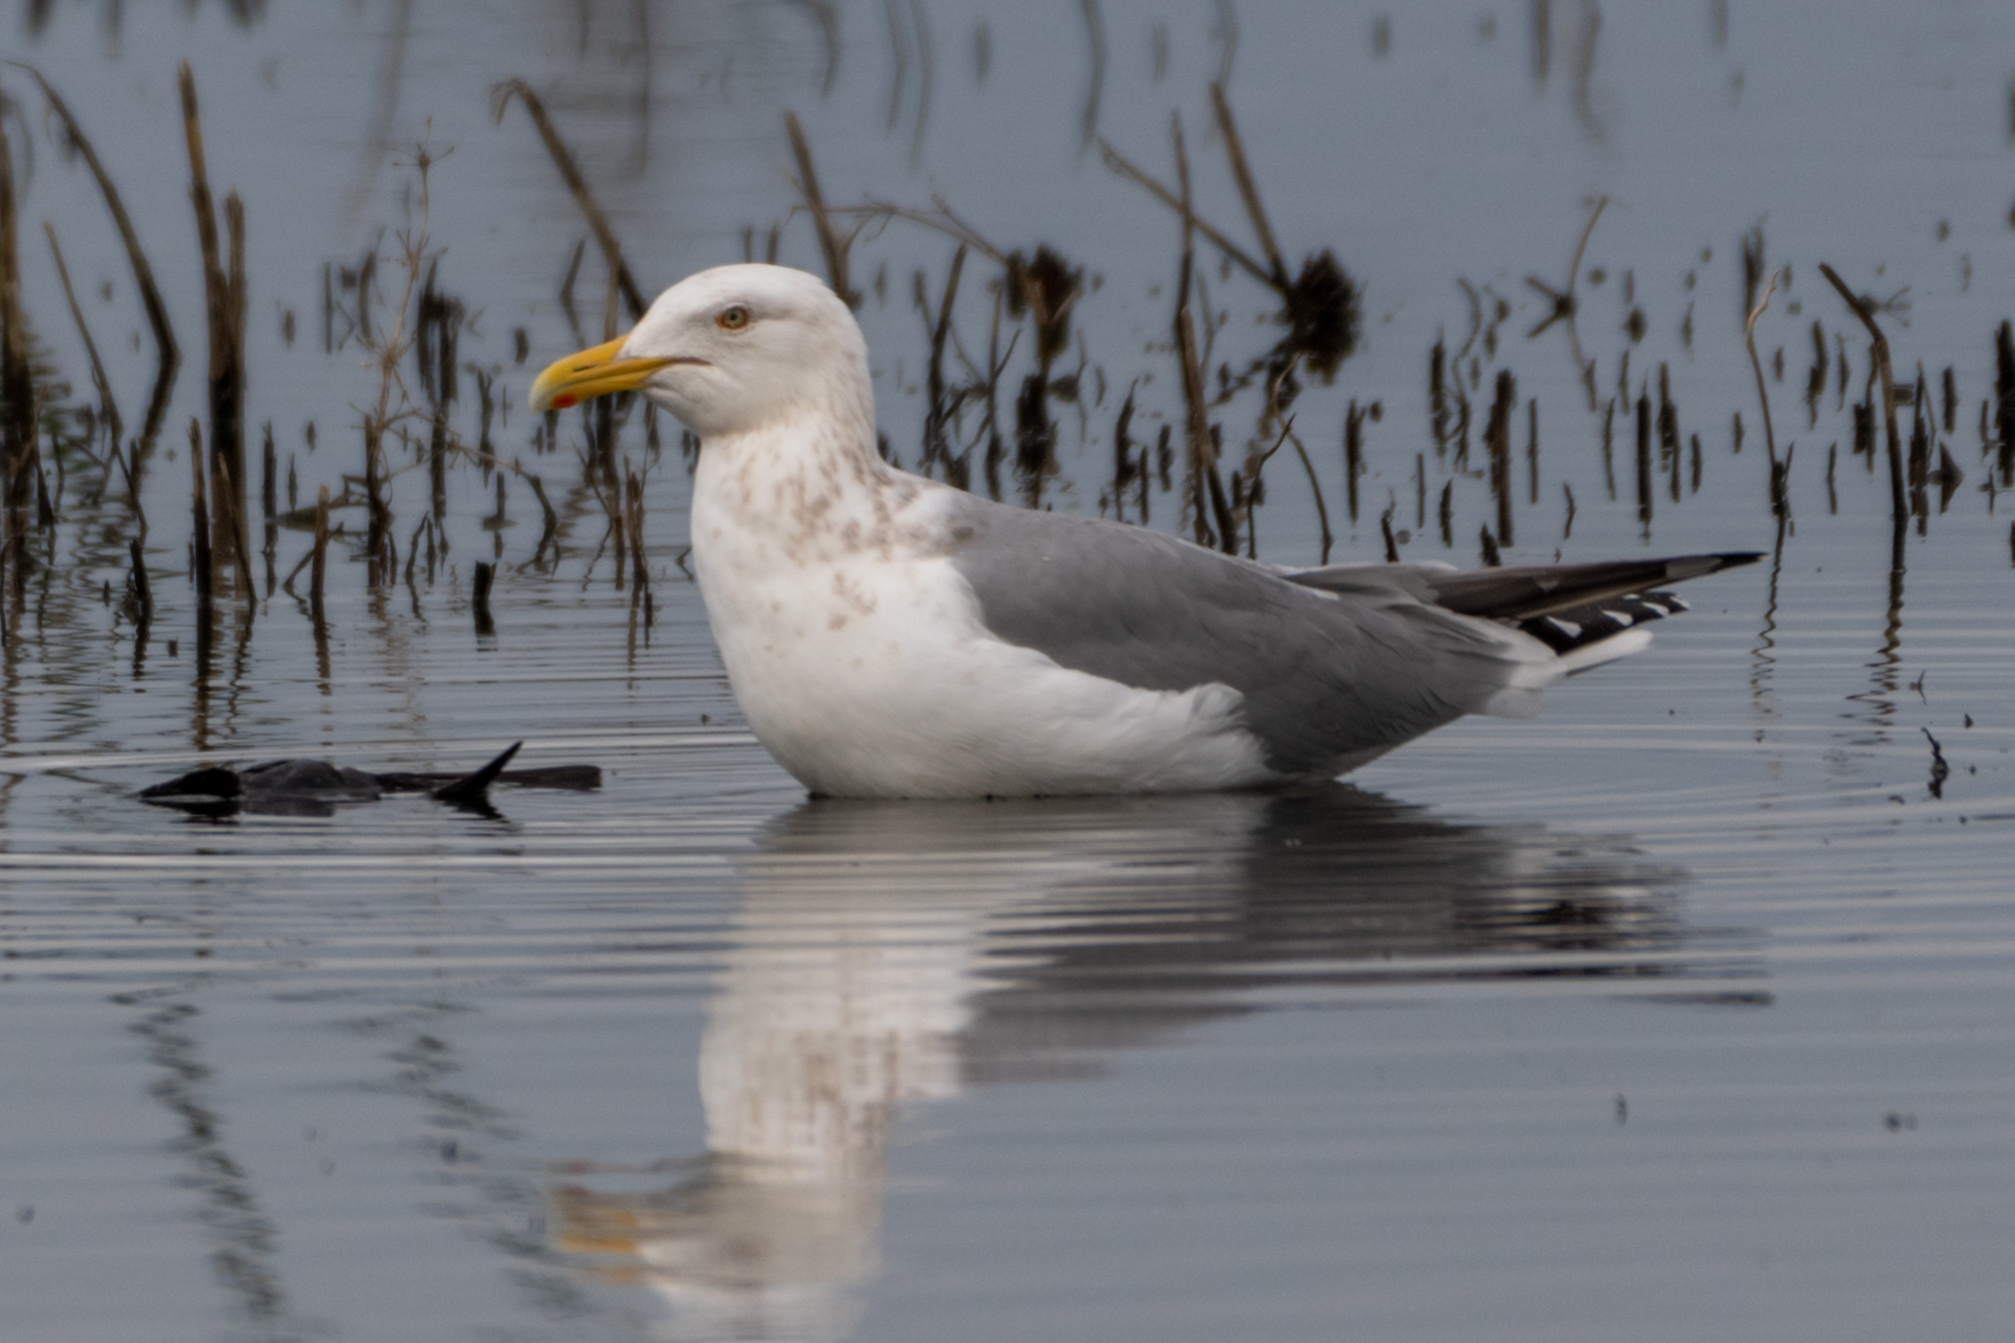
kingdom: Animalia
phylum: Chordata
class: Aves
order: Charadriiformes
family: Laridae
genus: Larus
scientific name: Larus argentatus
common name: Herring gull
